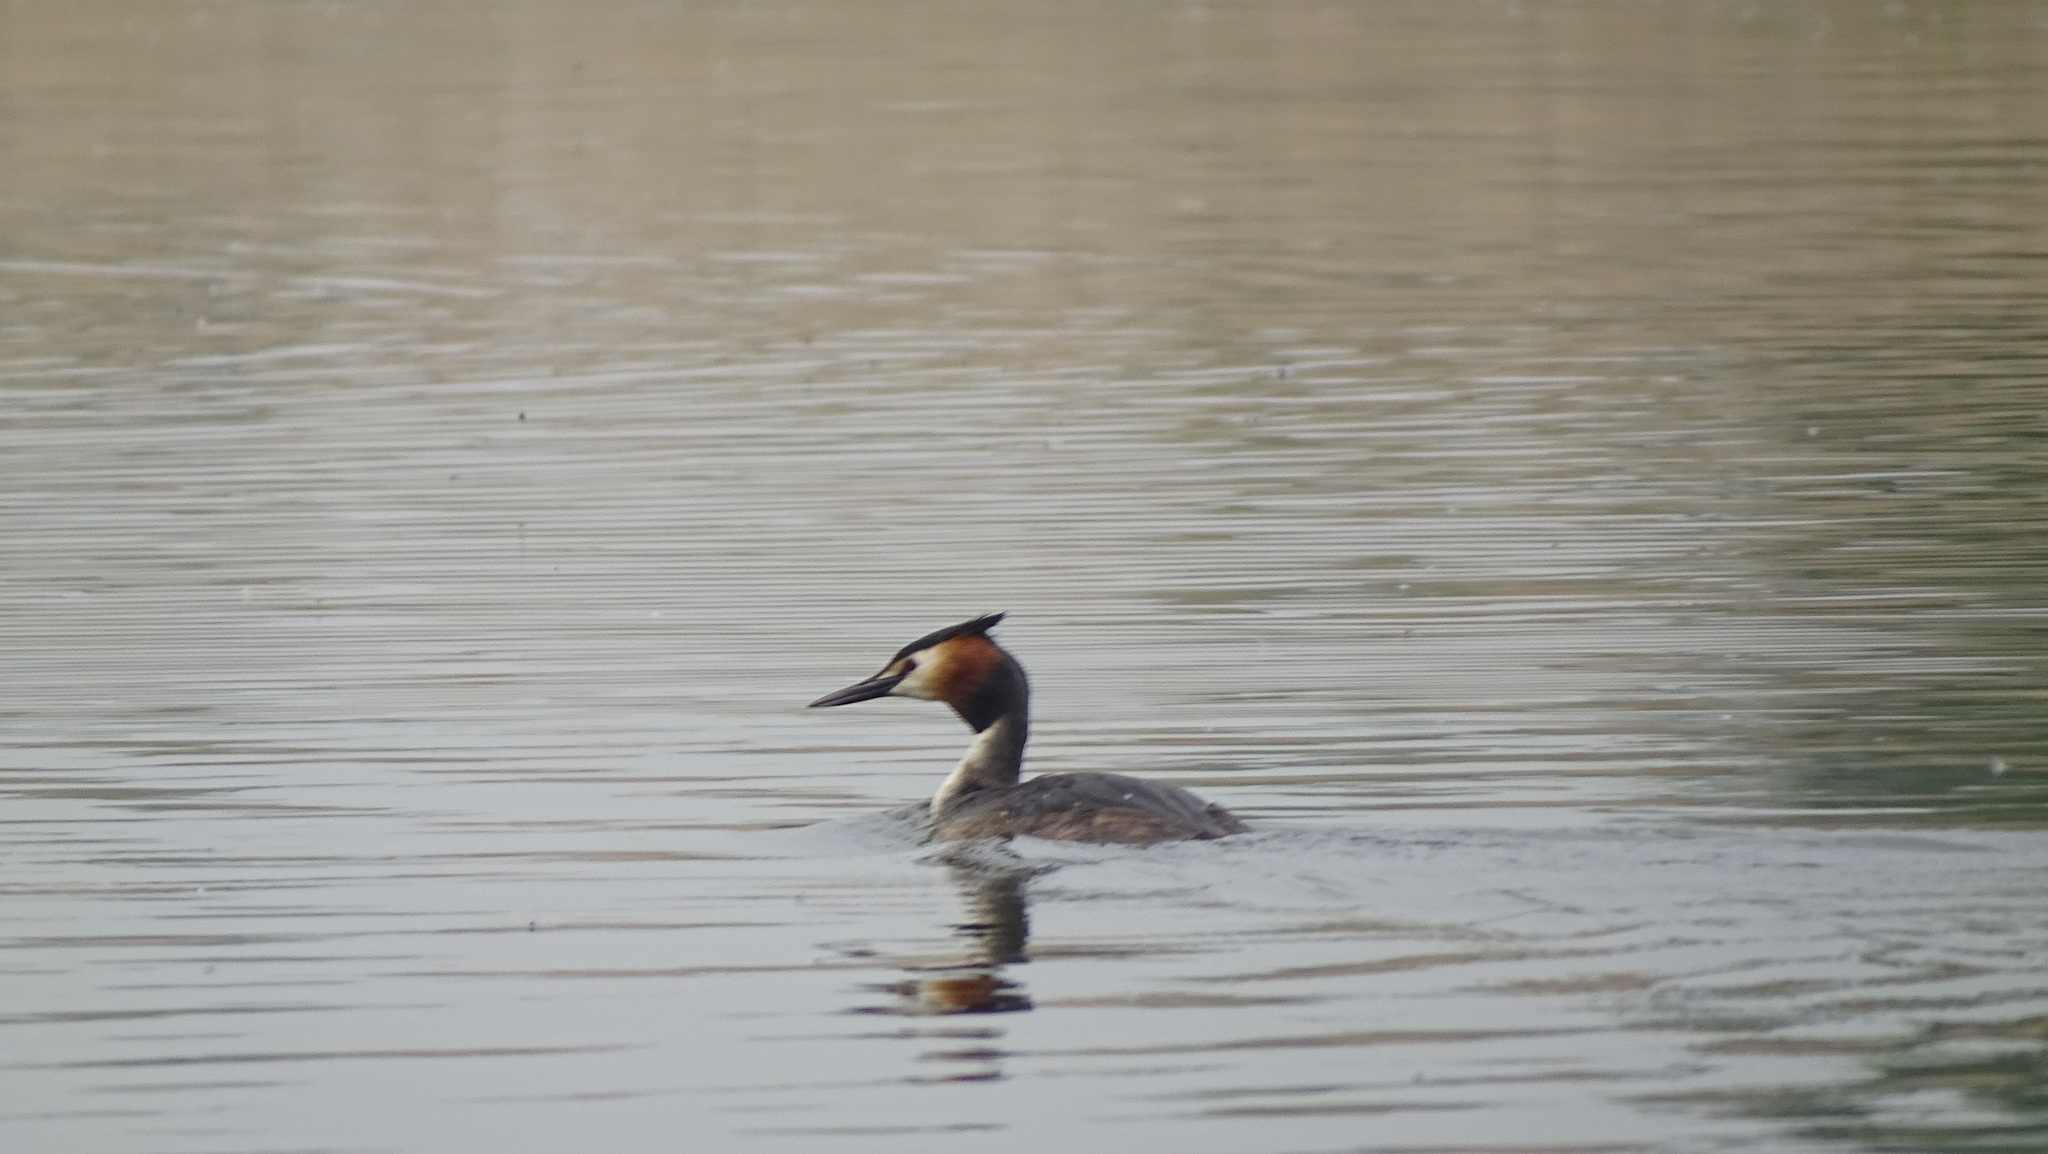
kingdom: Animalia
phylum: Chordata
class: Aves
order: Podicipediformes
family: Podicipedidae
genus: Podiceps
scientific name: Podiceps cristatus
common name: Great crested grebe
